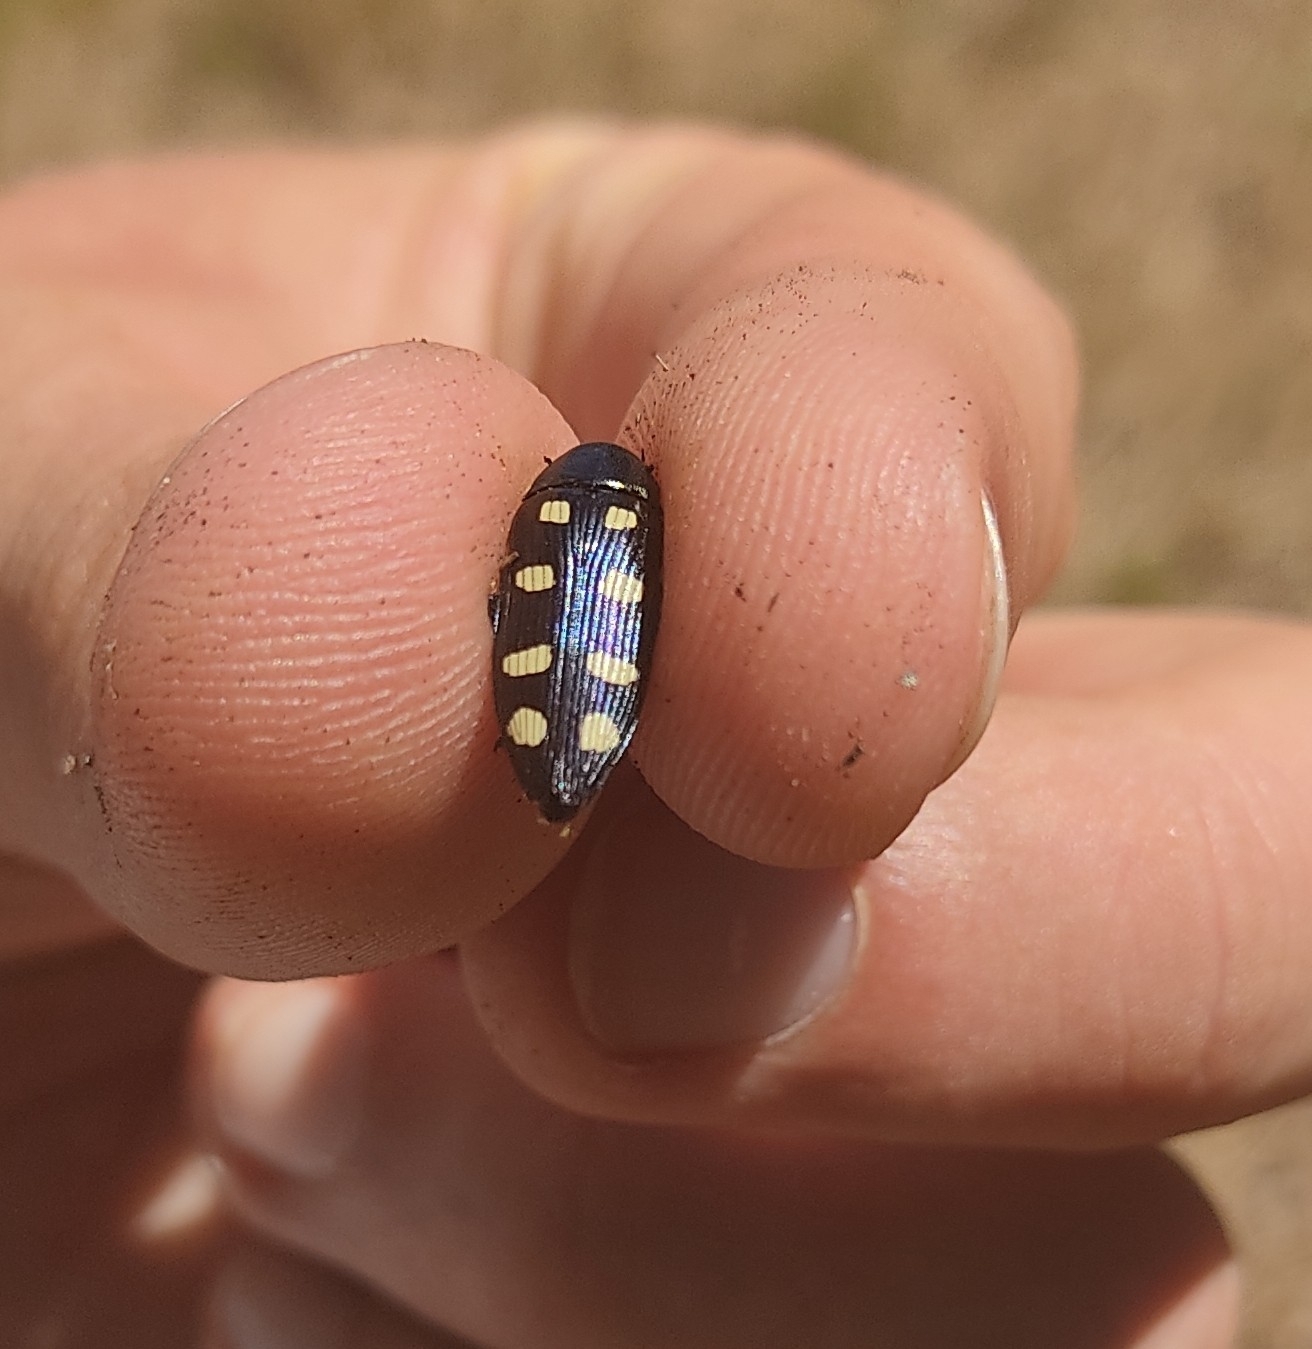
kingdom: Animalia
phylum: Arthropoda
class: Insecta
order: Coleoptera
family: Buprestidae
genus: Buprestis
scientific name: Buprestis octoguttata
